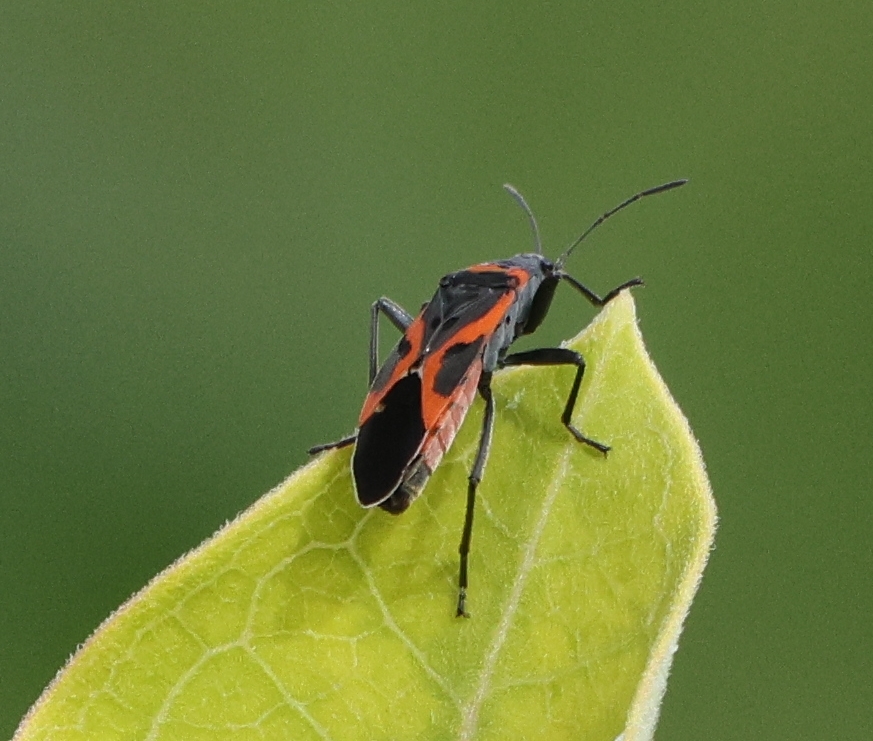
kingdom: Animalia
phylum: Arthropoda
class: Insecta
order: Hemiptera
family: Lygaeidae
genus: Lygaeus
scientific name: Lygaeus kalmii
